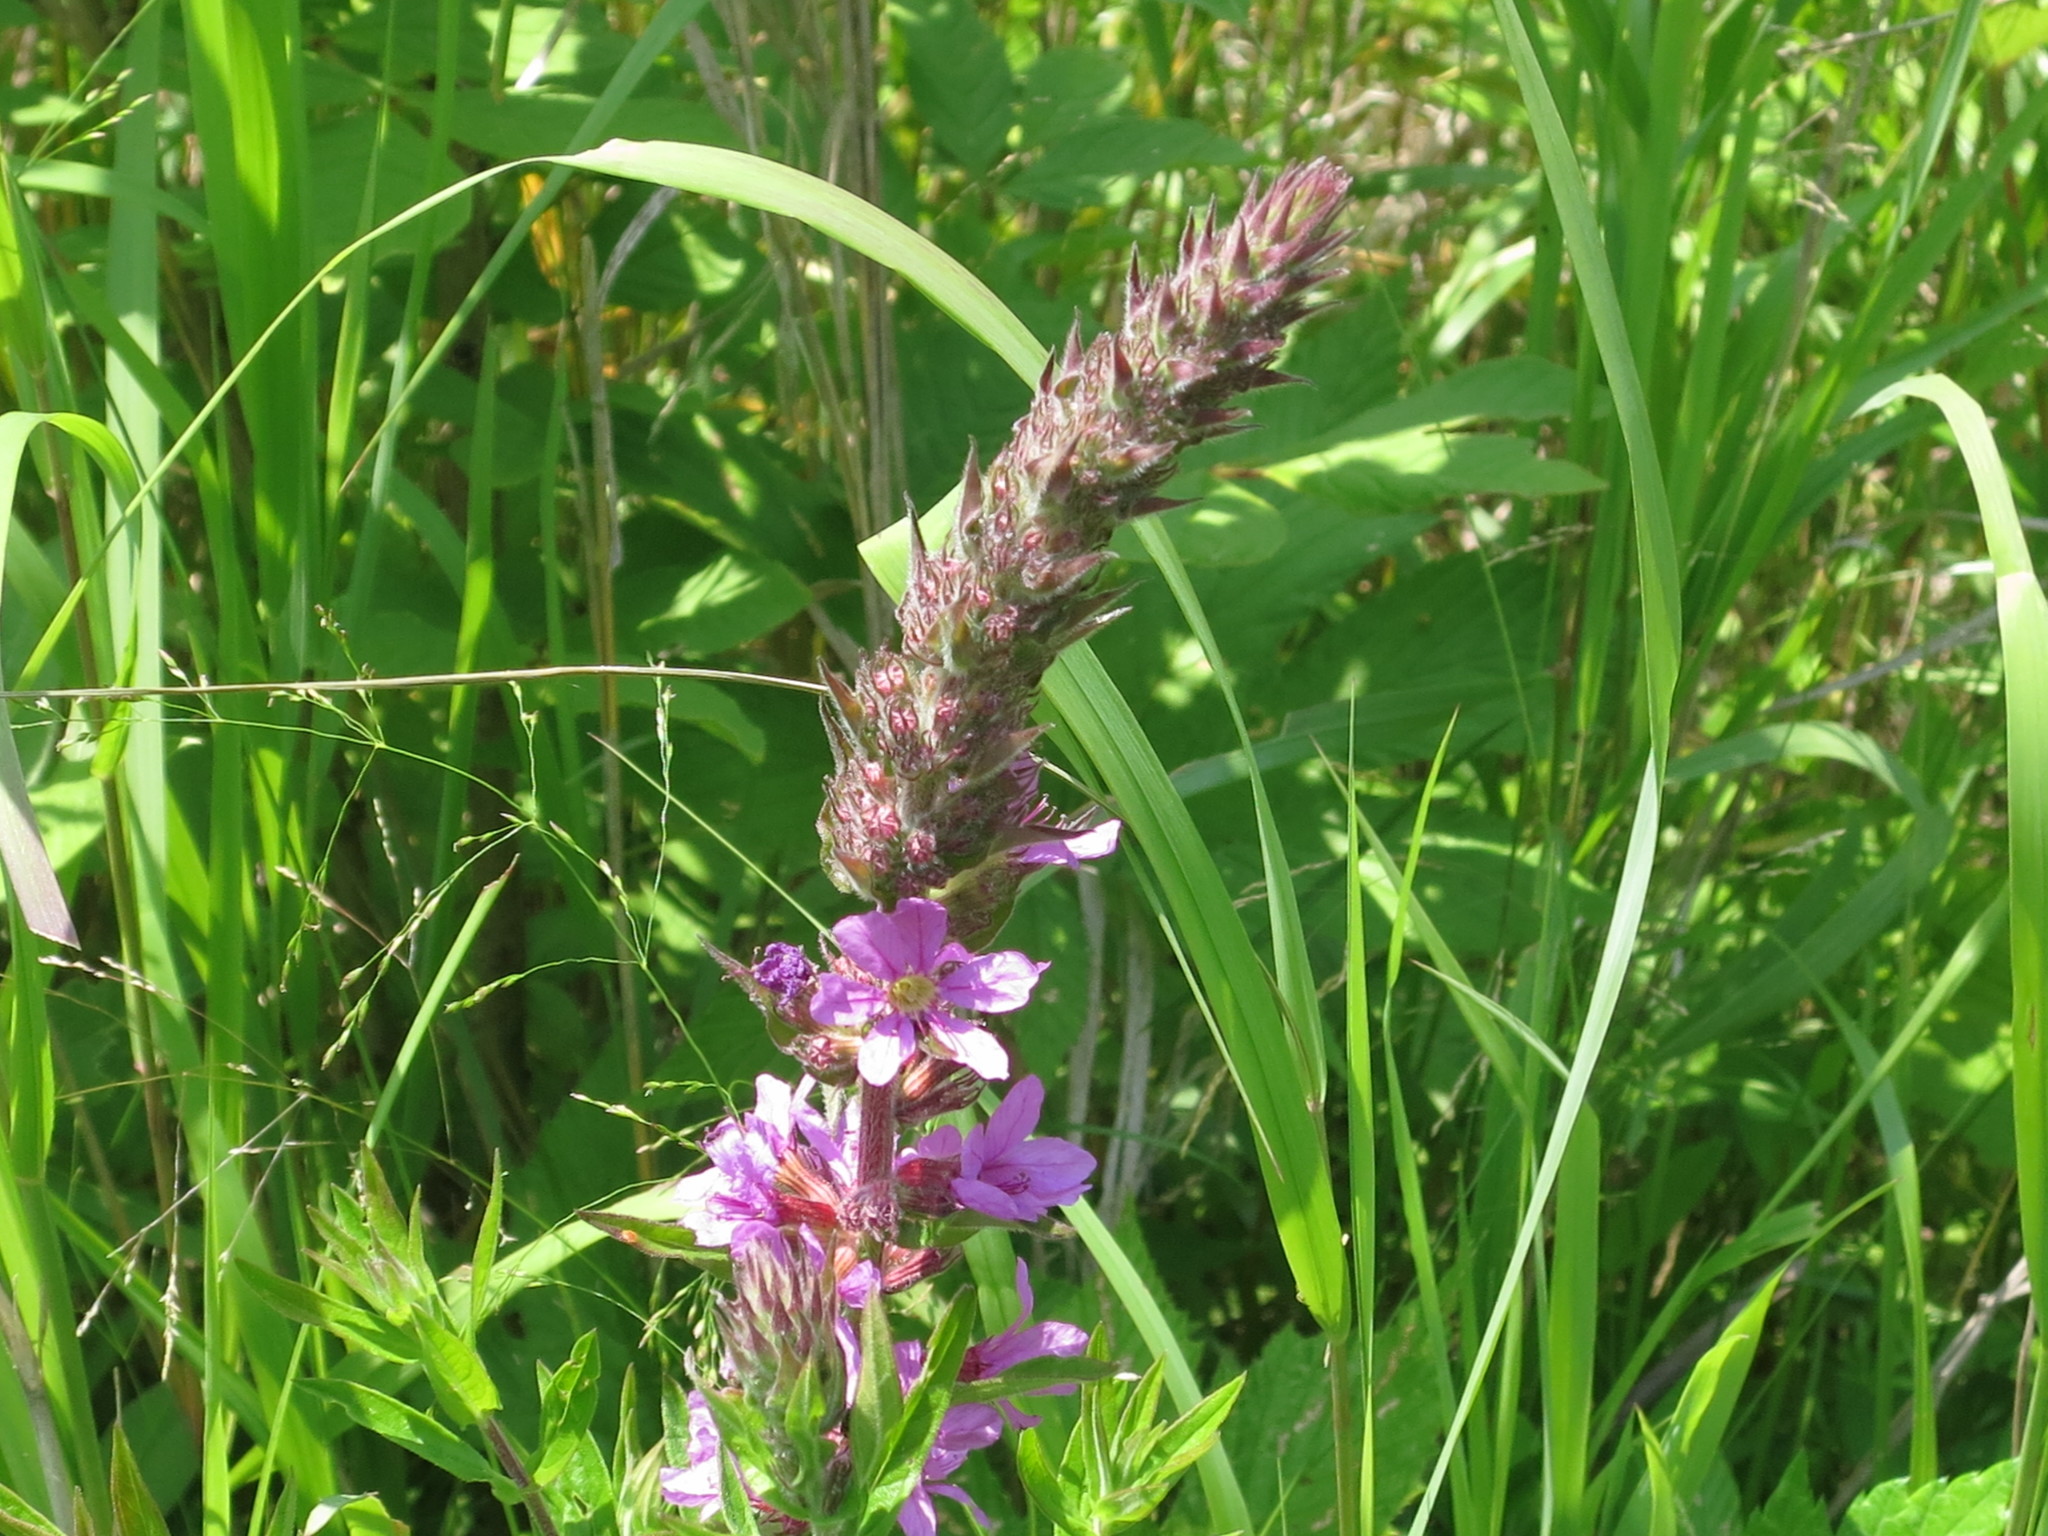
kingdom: Plantae
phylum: Tracheophyta
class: Magnoliopsida
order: Myrtales
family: Lythraceae
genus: Lythrum
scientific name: Lythrum salicaria
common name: Purple loosestrife
